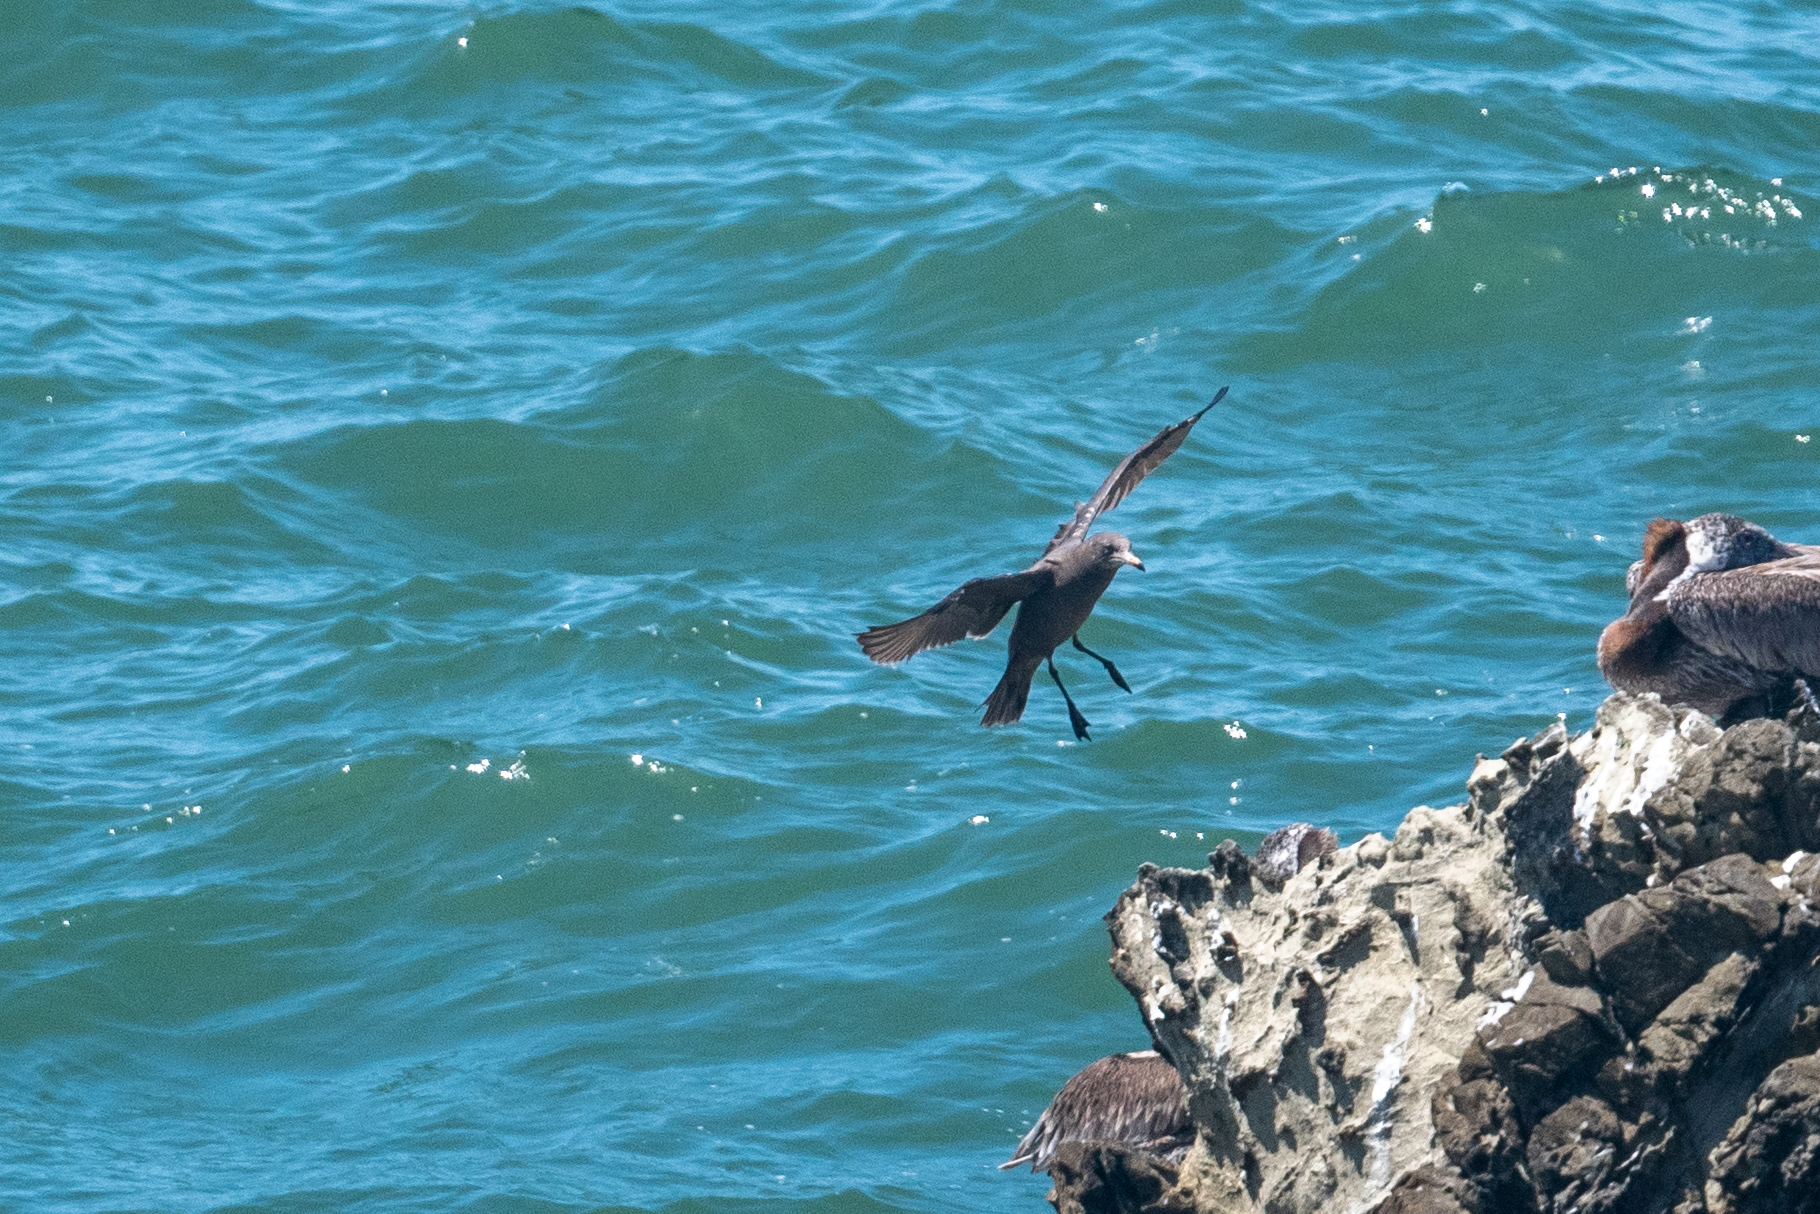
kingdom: Animalia
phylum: Chordata
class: Aves
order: Charadriiformes
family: Laridae
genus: Larus
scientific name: Larus heermanni
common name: Heermann's gull
